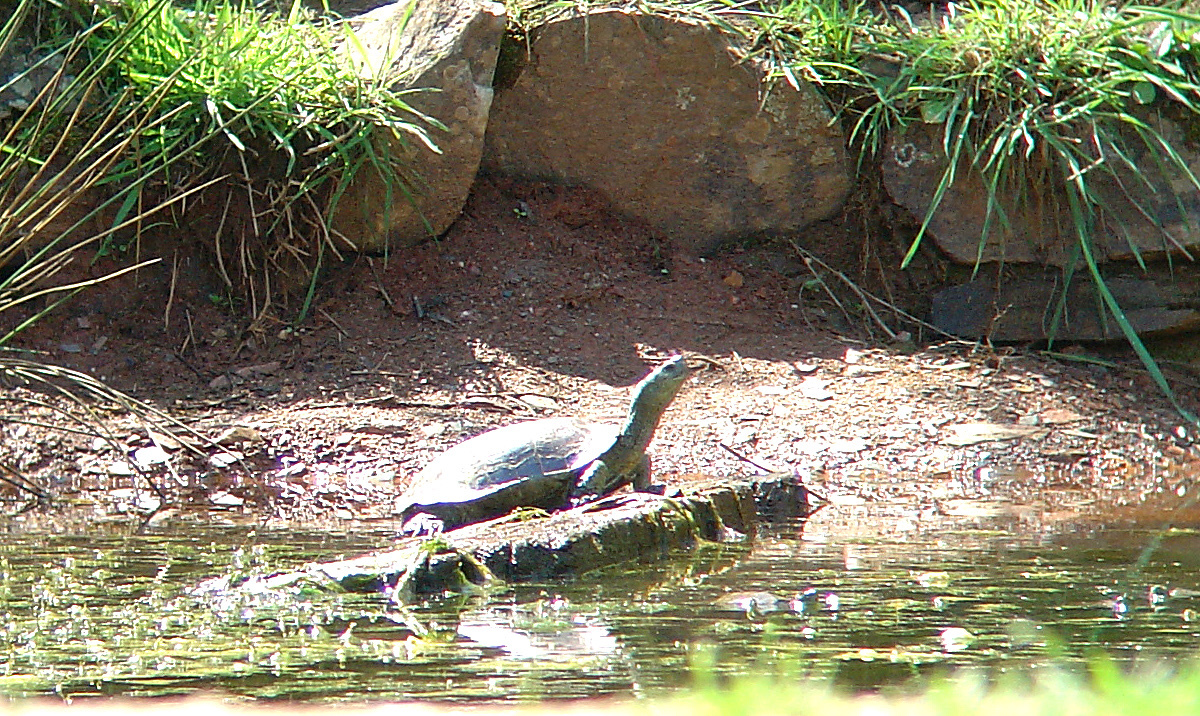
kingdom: Animalia
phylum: Chordata
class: Testudines
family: Geoemydidae
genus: Mauremys
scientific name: Mauremys leprosa
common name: Mediterranean pond turtle
